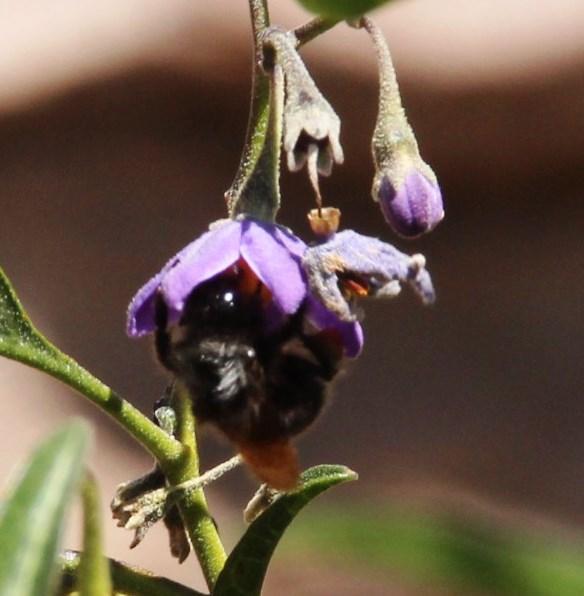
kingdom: Animalia
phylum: Arthropoda
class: Insecta
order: Hymenoptera
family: Apidae
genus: Bombus
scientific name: Bombus funebris
